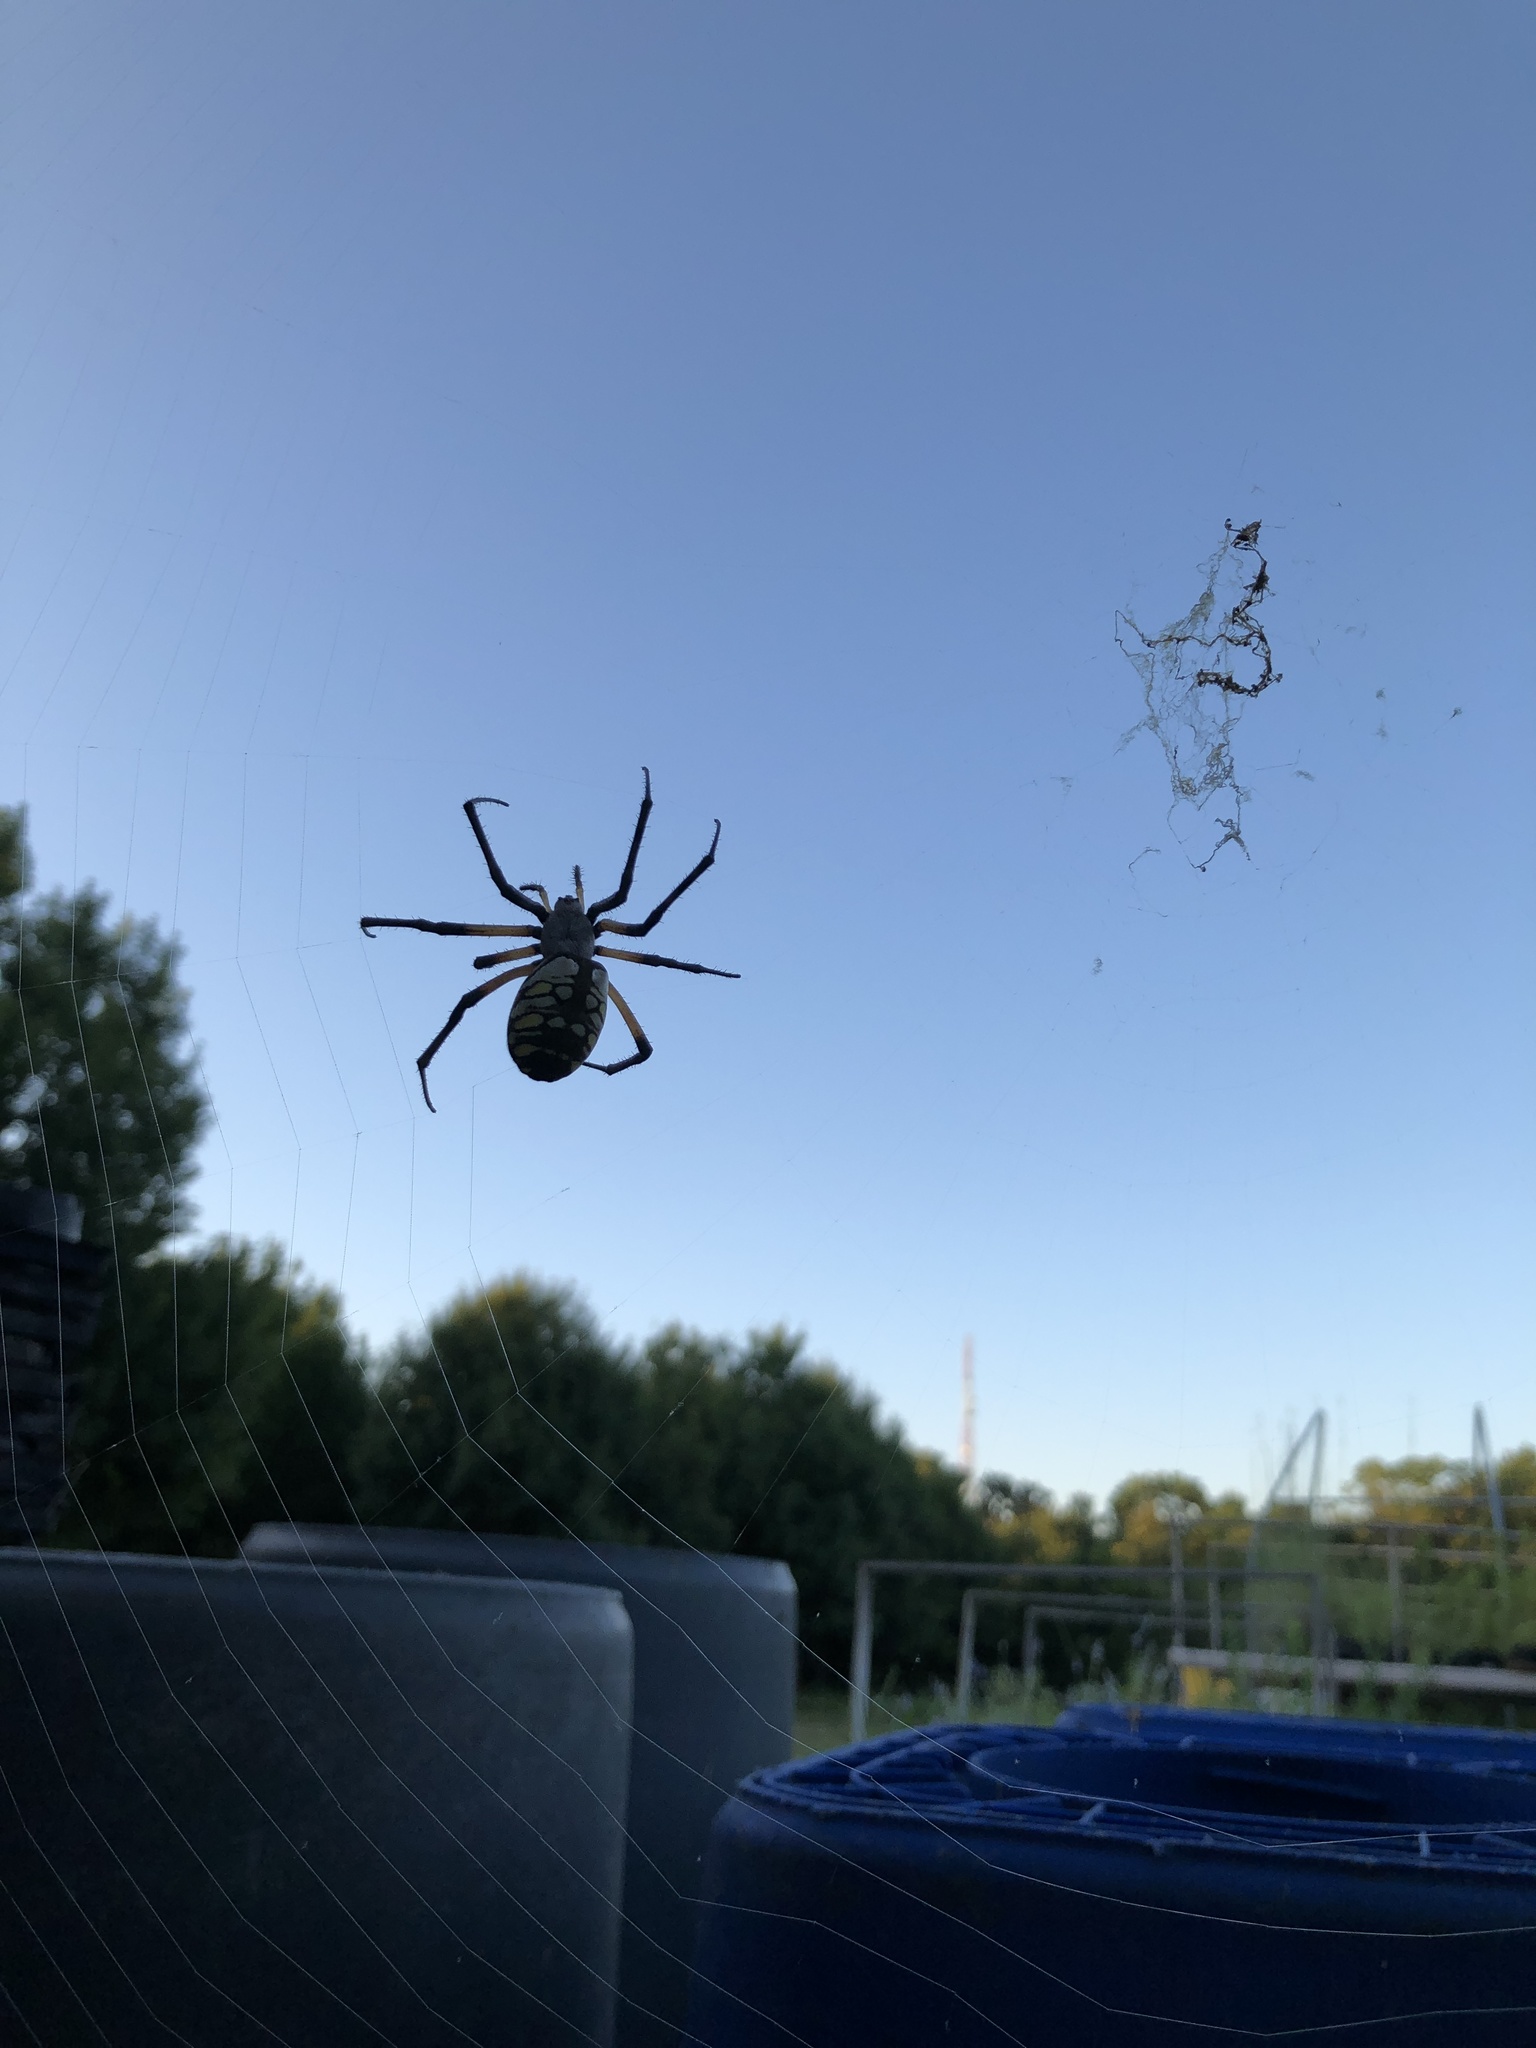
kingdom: Animalia
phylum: Arthropoda
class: Arachnida
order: Araneae
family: Araneidae
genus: Argiope
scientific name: Argiope aurantia
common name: Orb weavers
